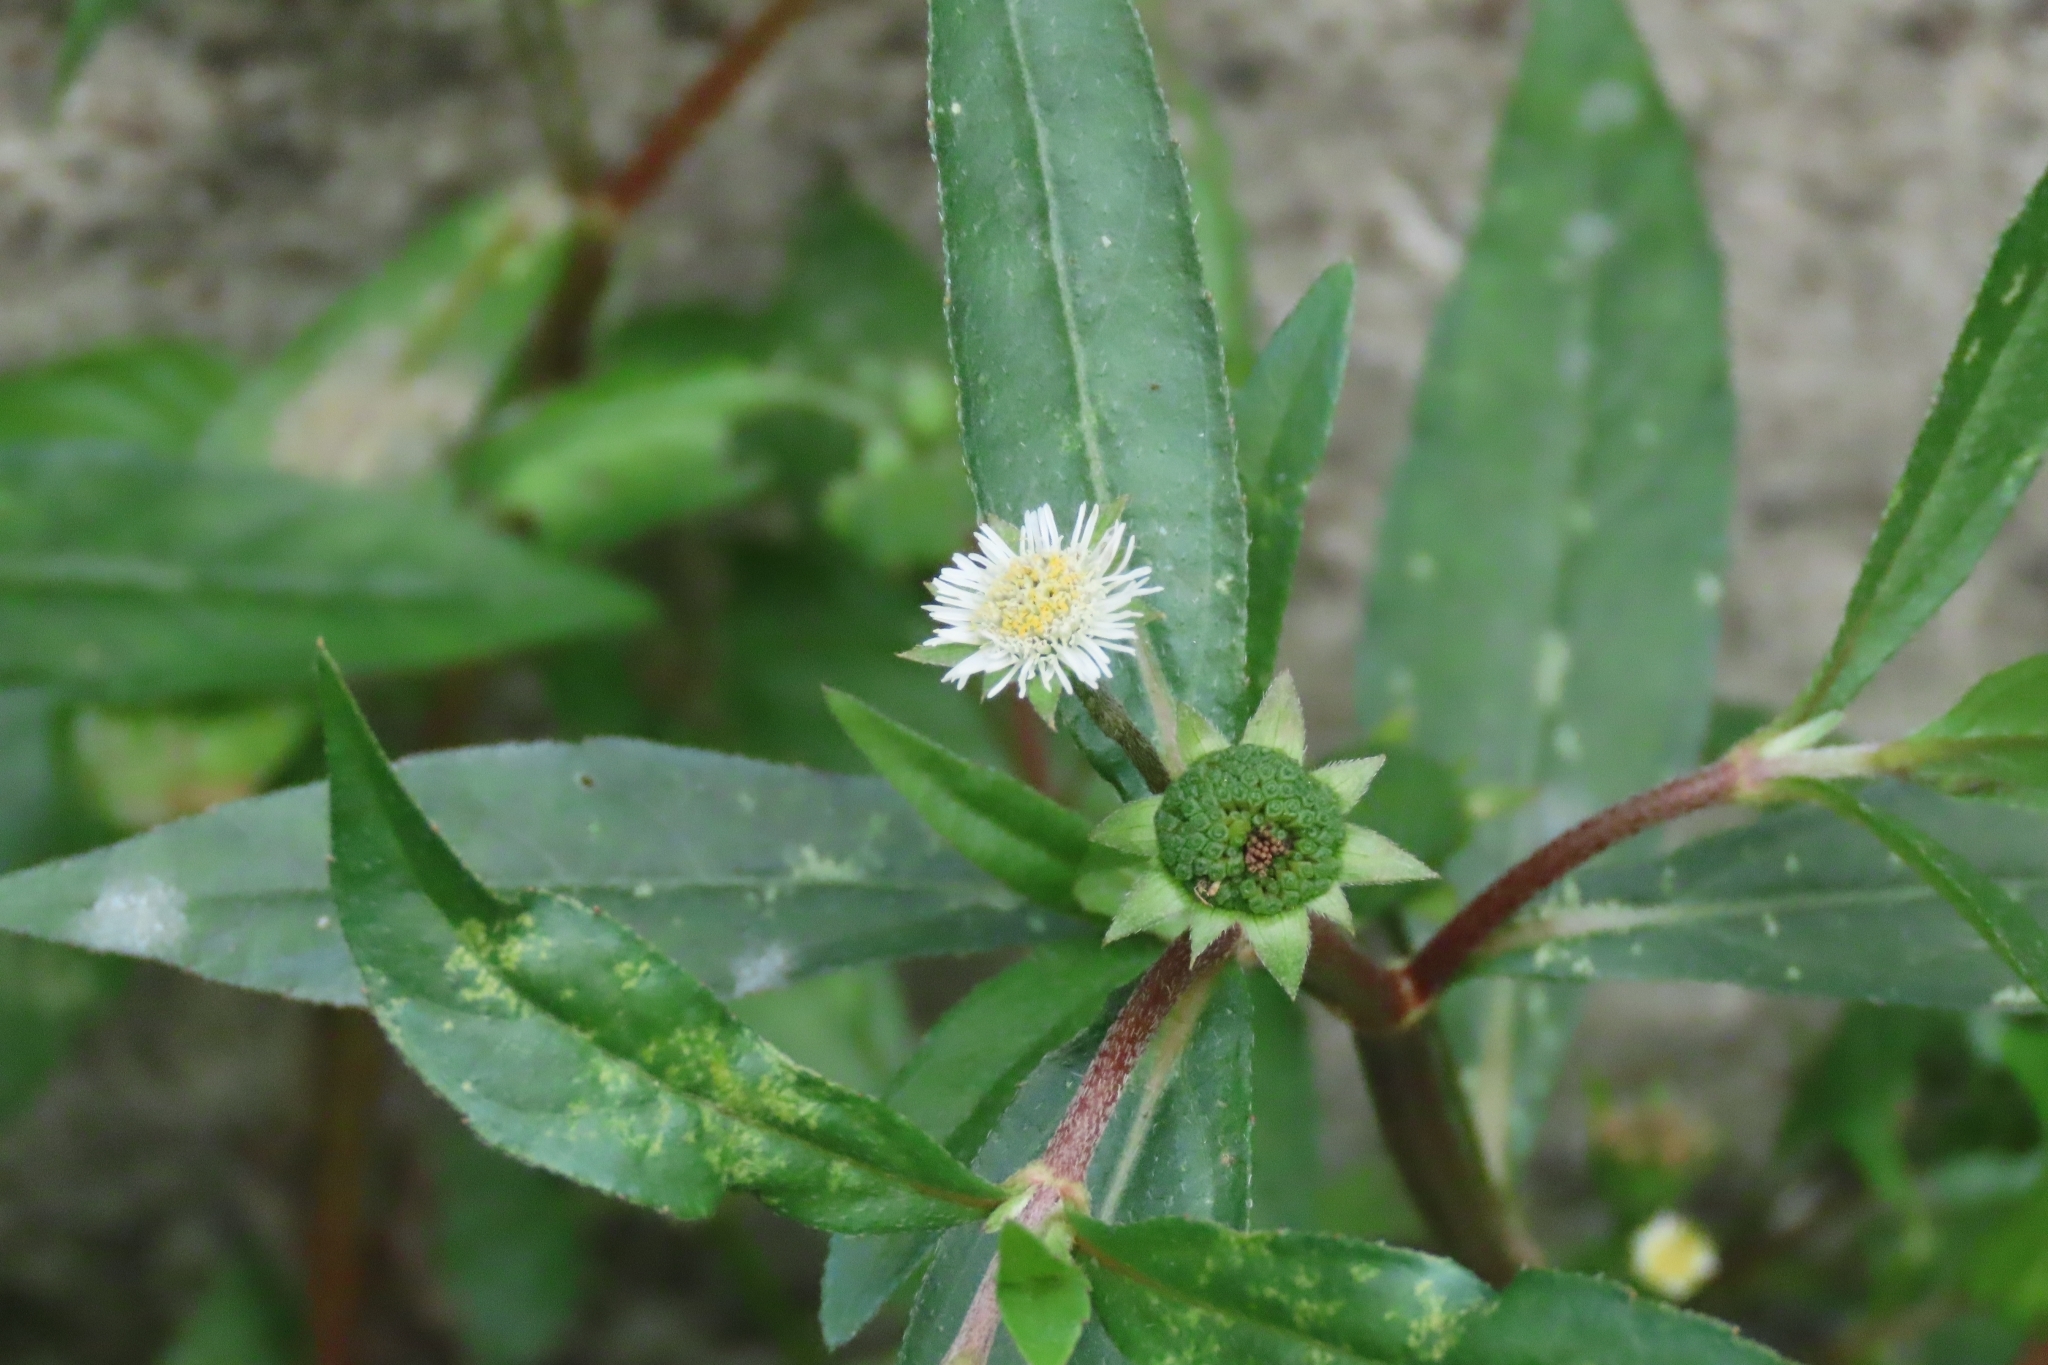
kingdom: Plantae
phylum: Tracheophyta
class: Magnoliopsida
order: Asterales
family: Asteraceae
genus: Eclipta
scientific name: Eclipta prostrata
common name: False daisy
